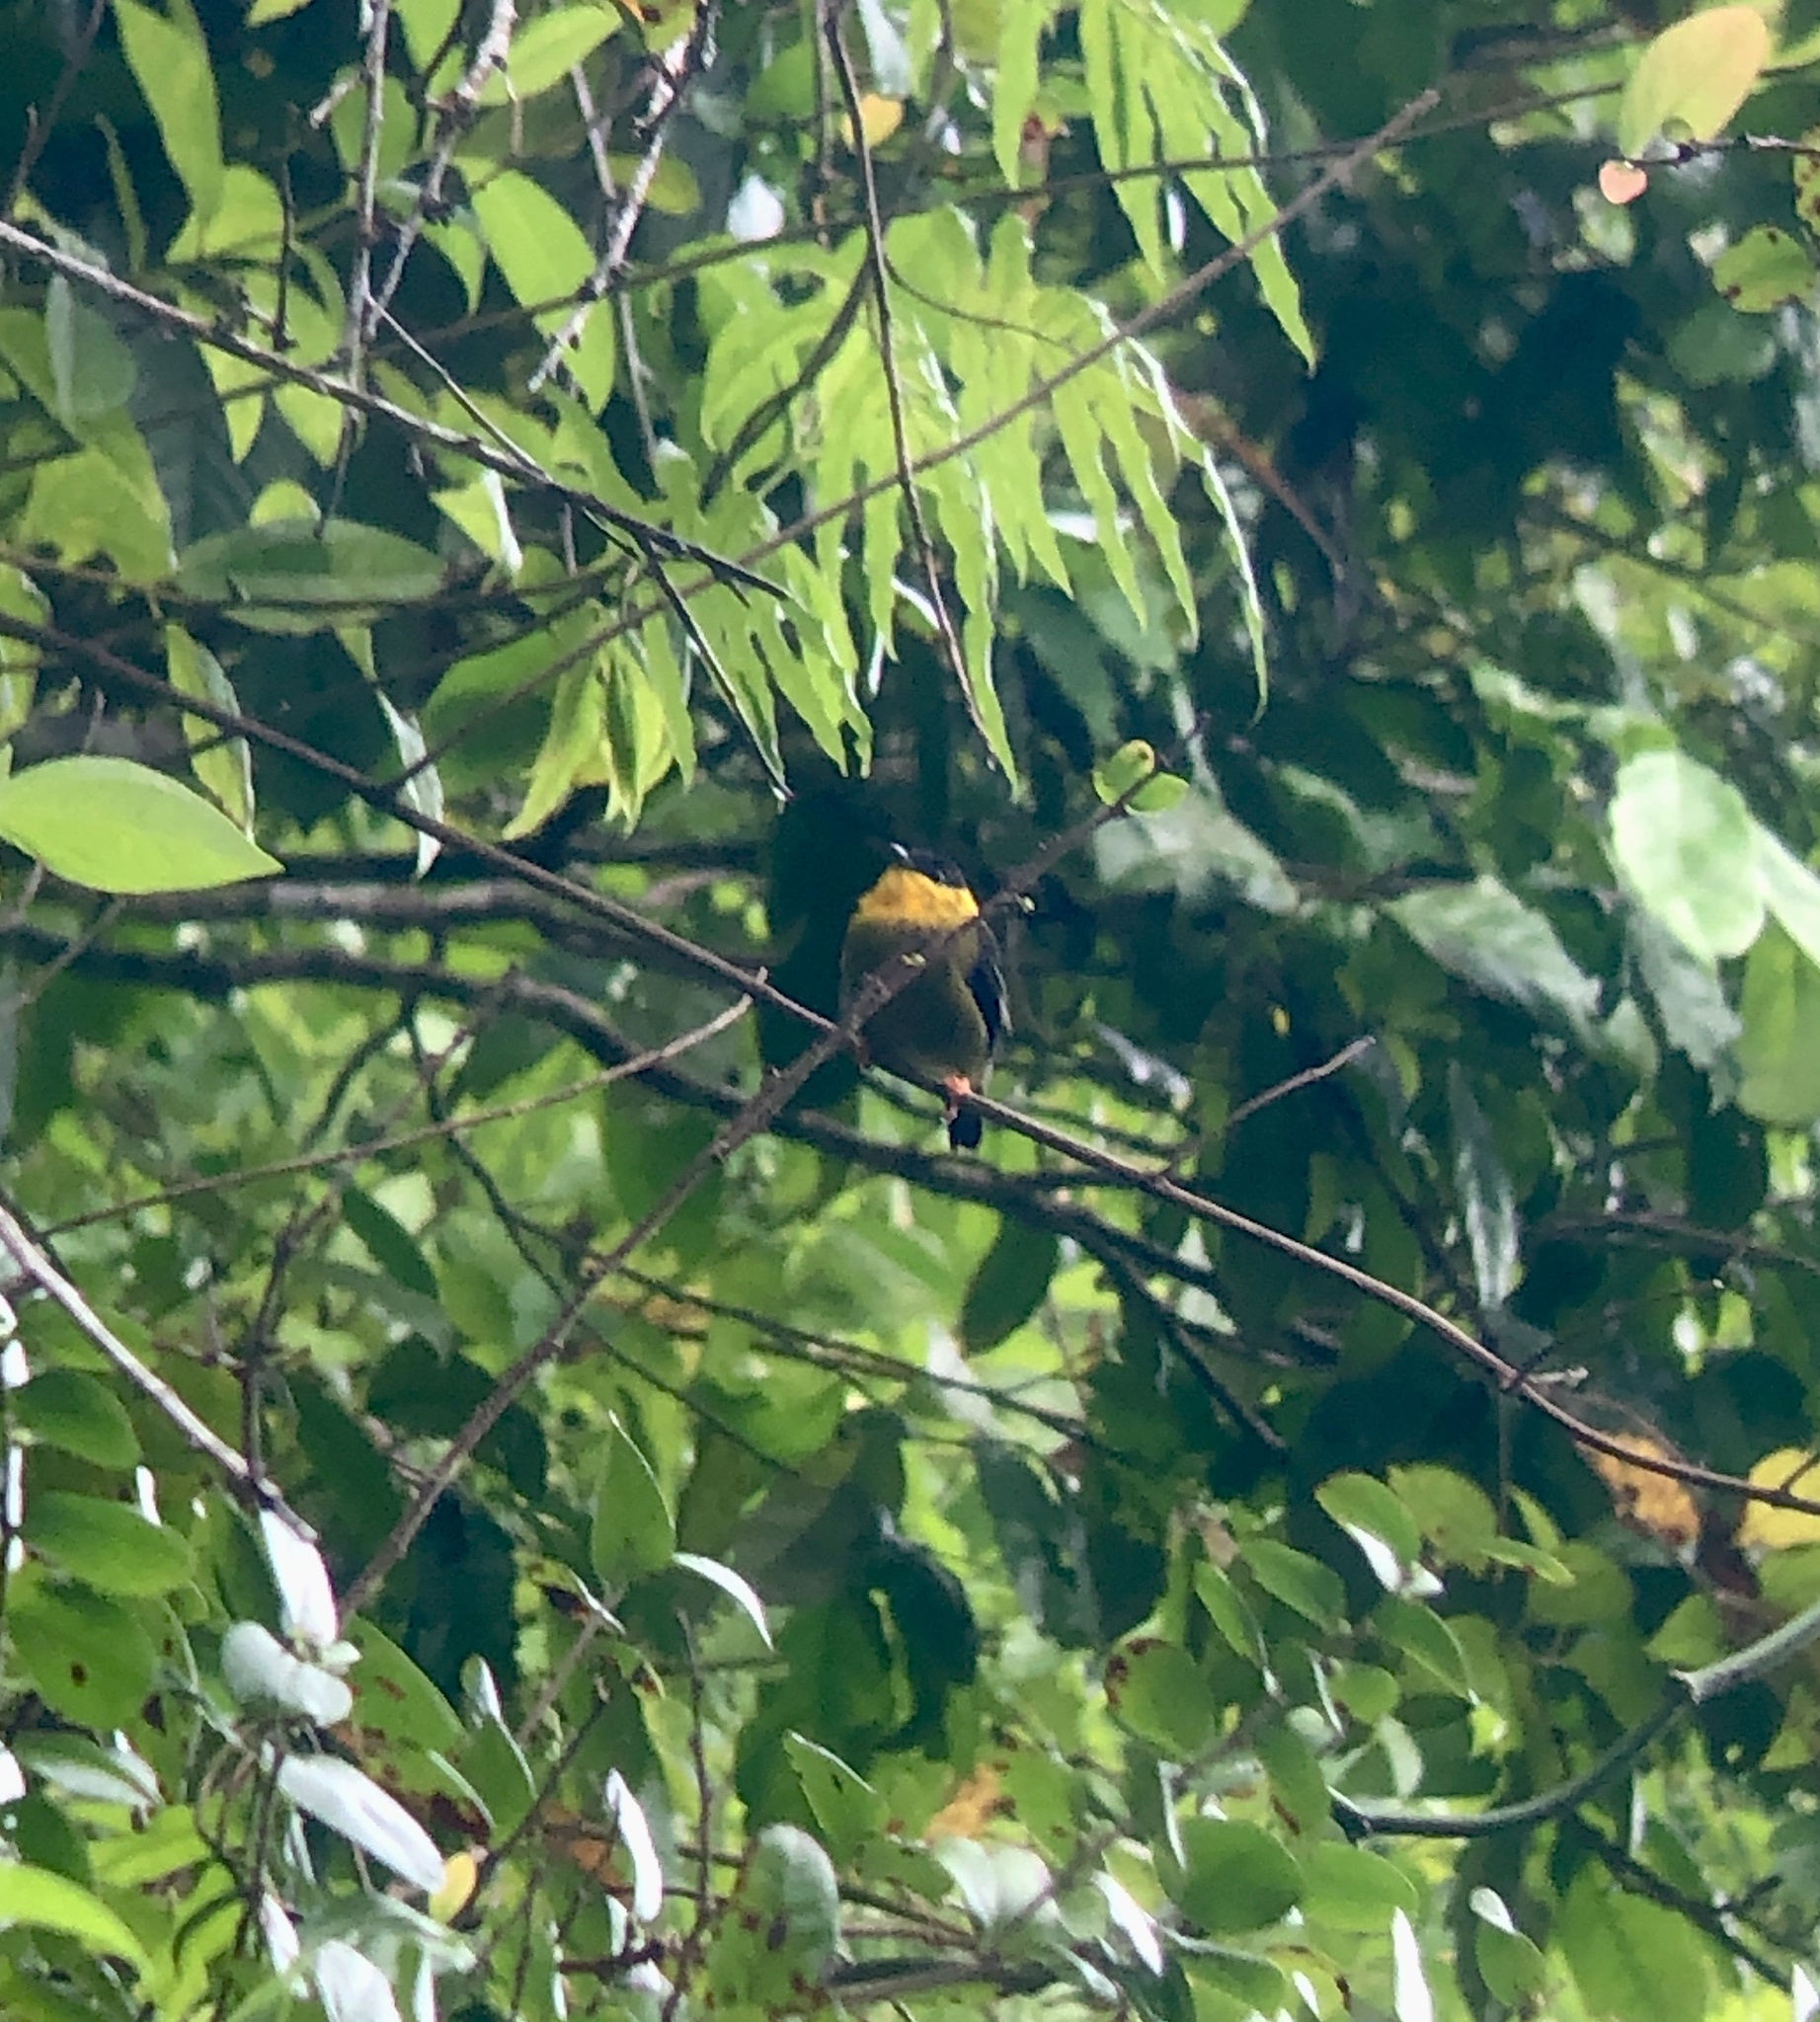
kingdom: Animalia
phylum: Chordata
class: Aves
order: Passeriformes
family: Pipridae
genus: Manacus
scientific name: Manacus vitellinus
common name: Golden-collared manakin
